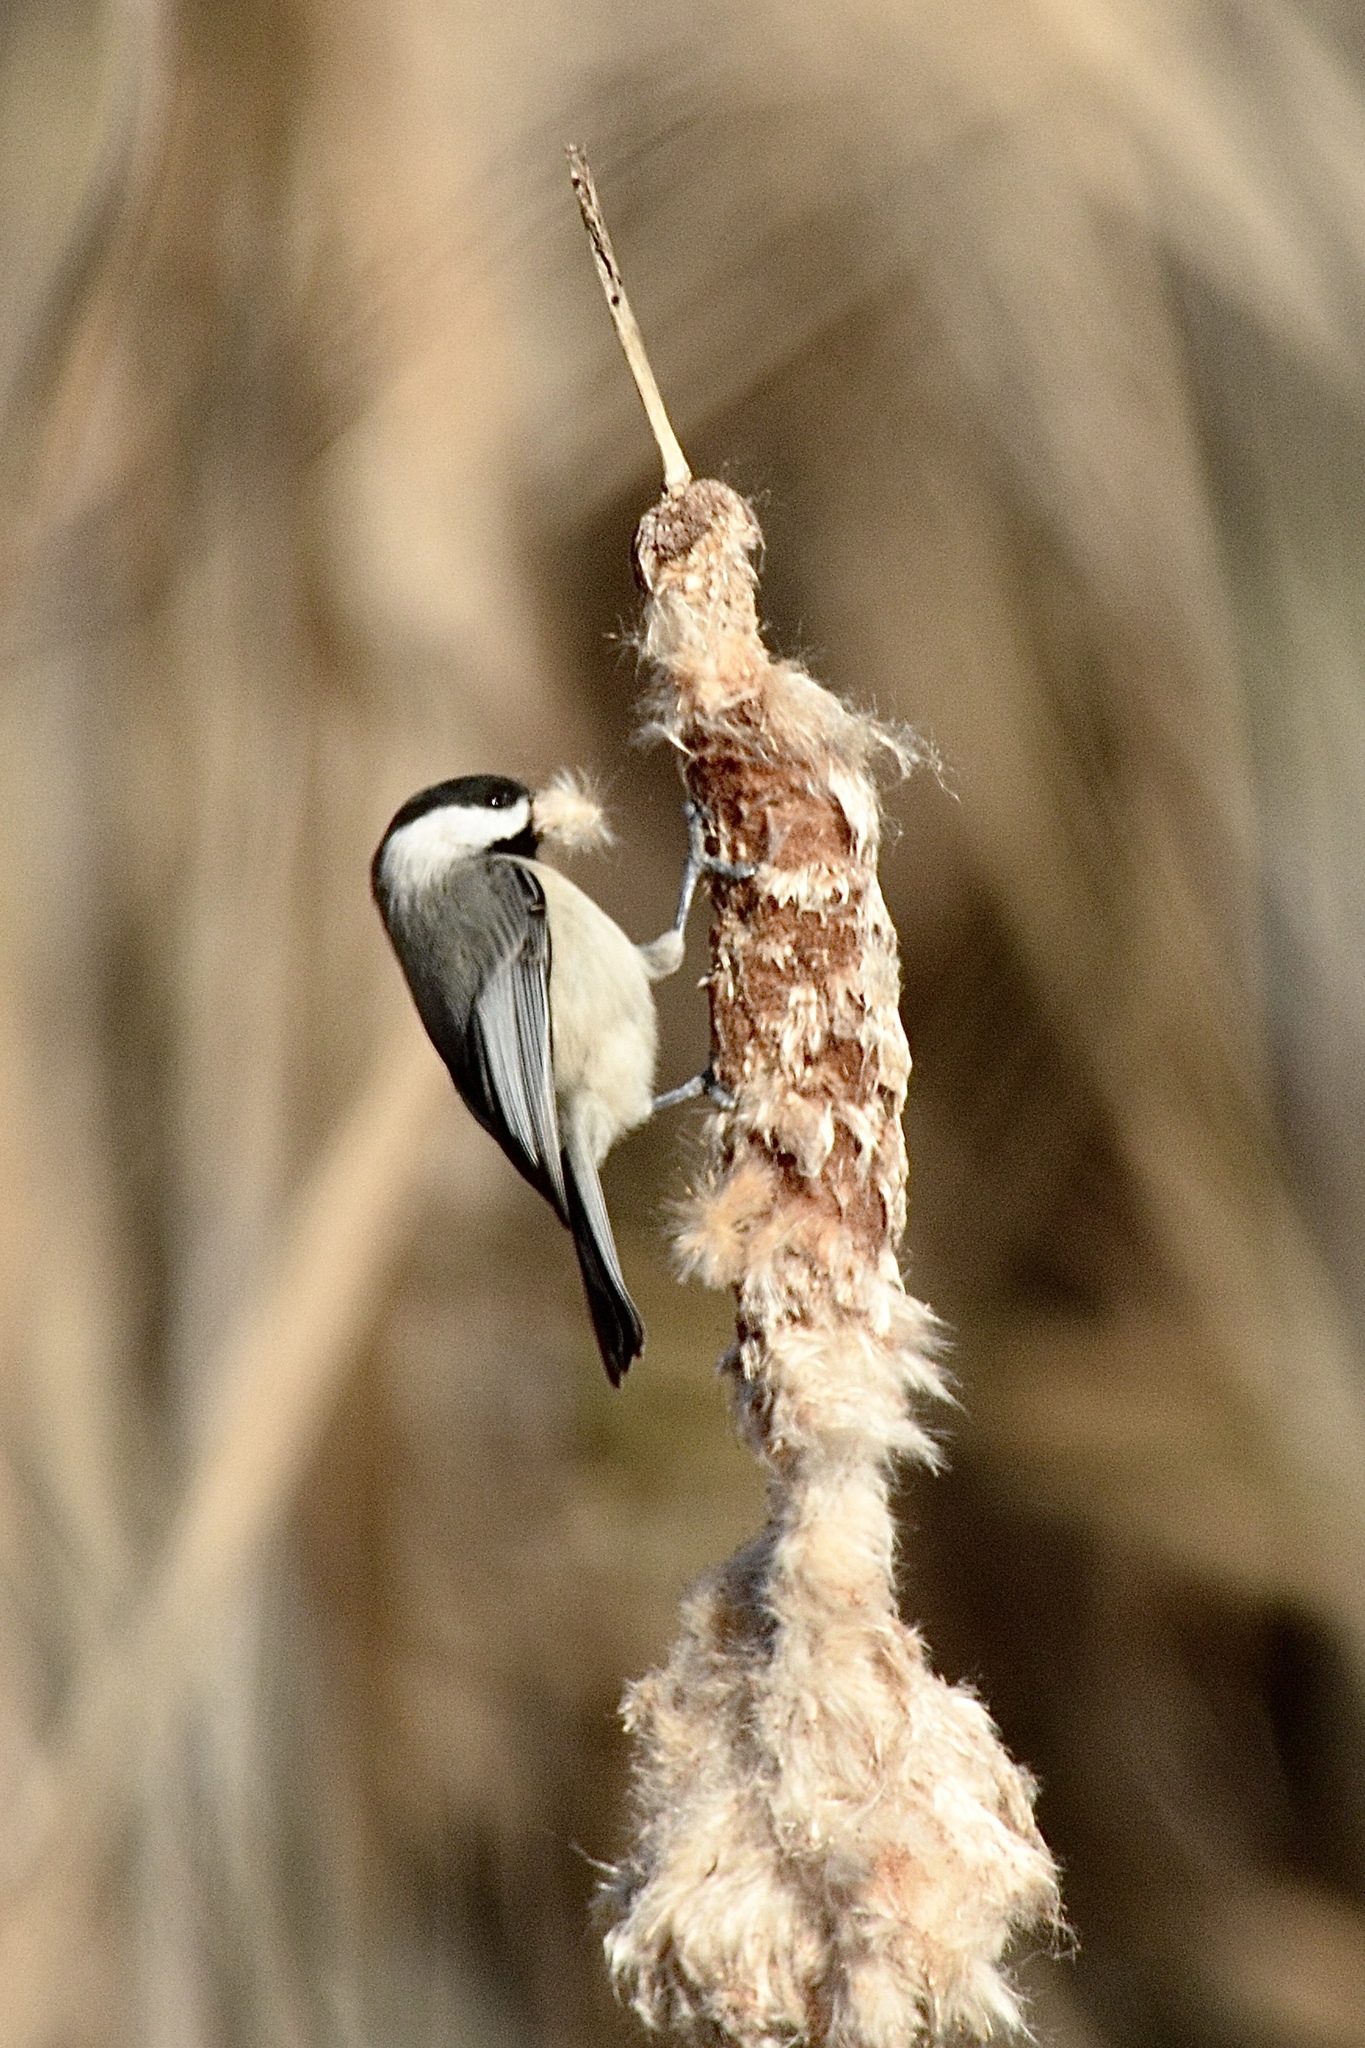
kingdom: Animalia
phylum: Chordata
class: Aves
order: Passeriformes
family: Paridae
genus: Poecile
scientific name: Poecile carolinensis
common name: Carolina chickadee
